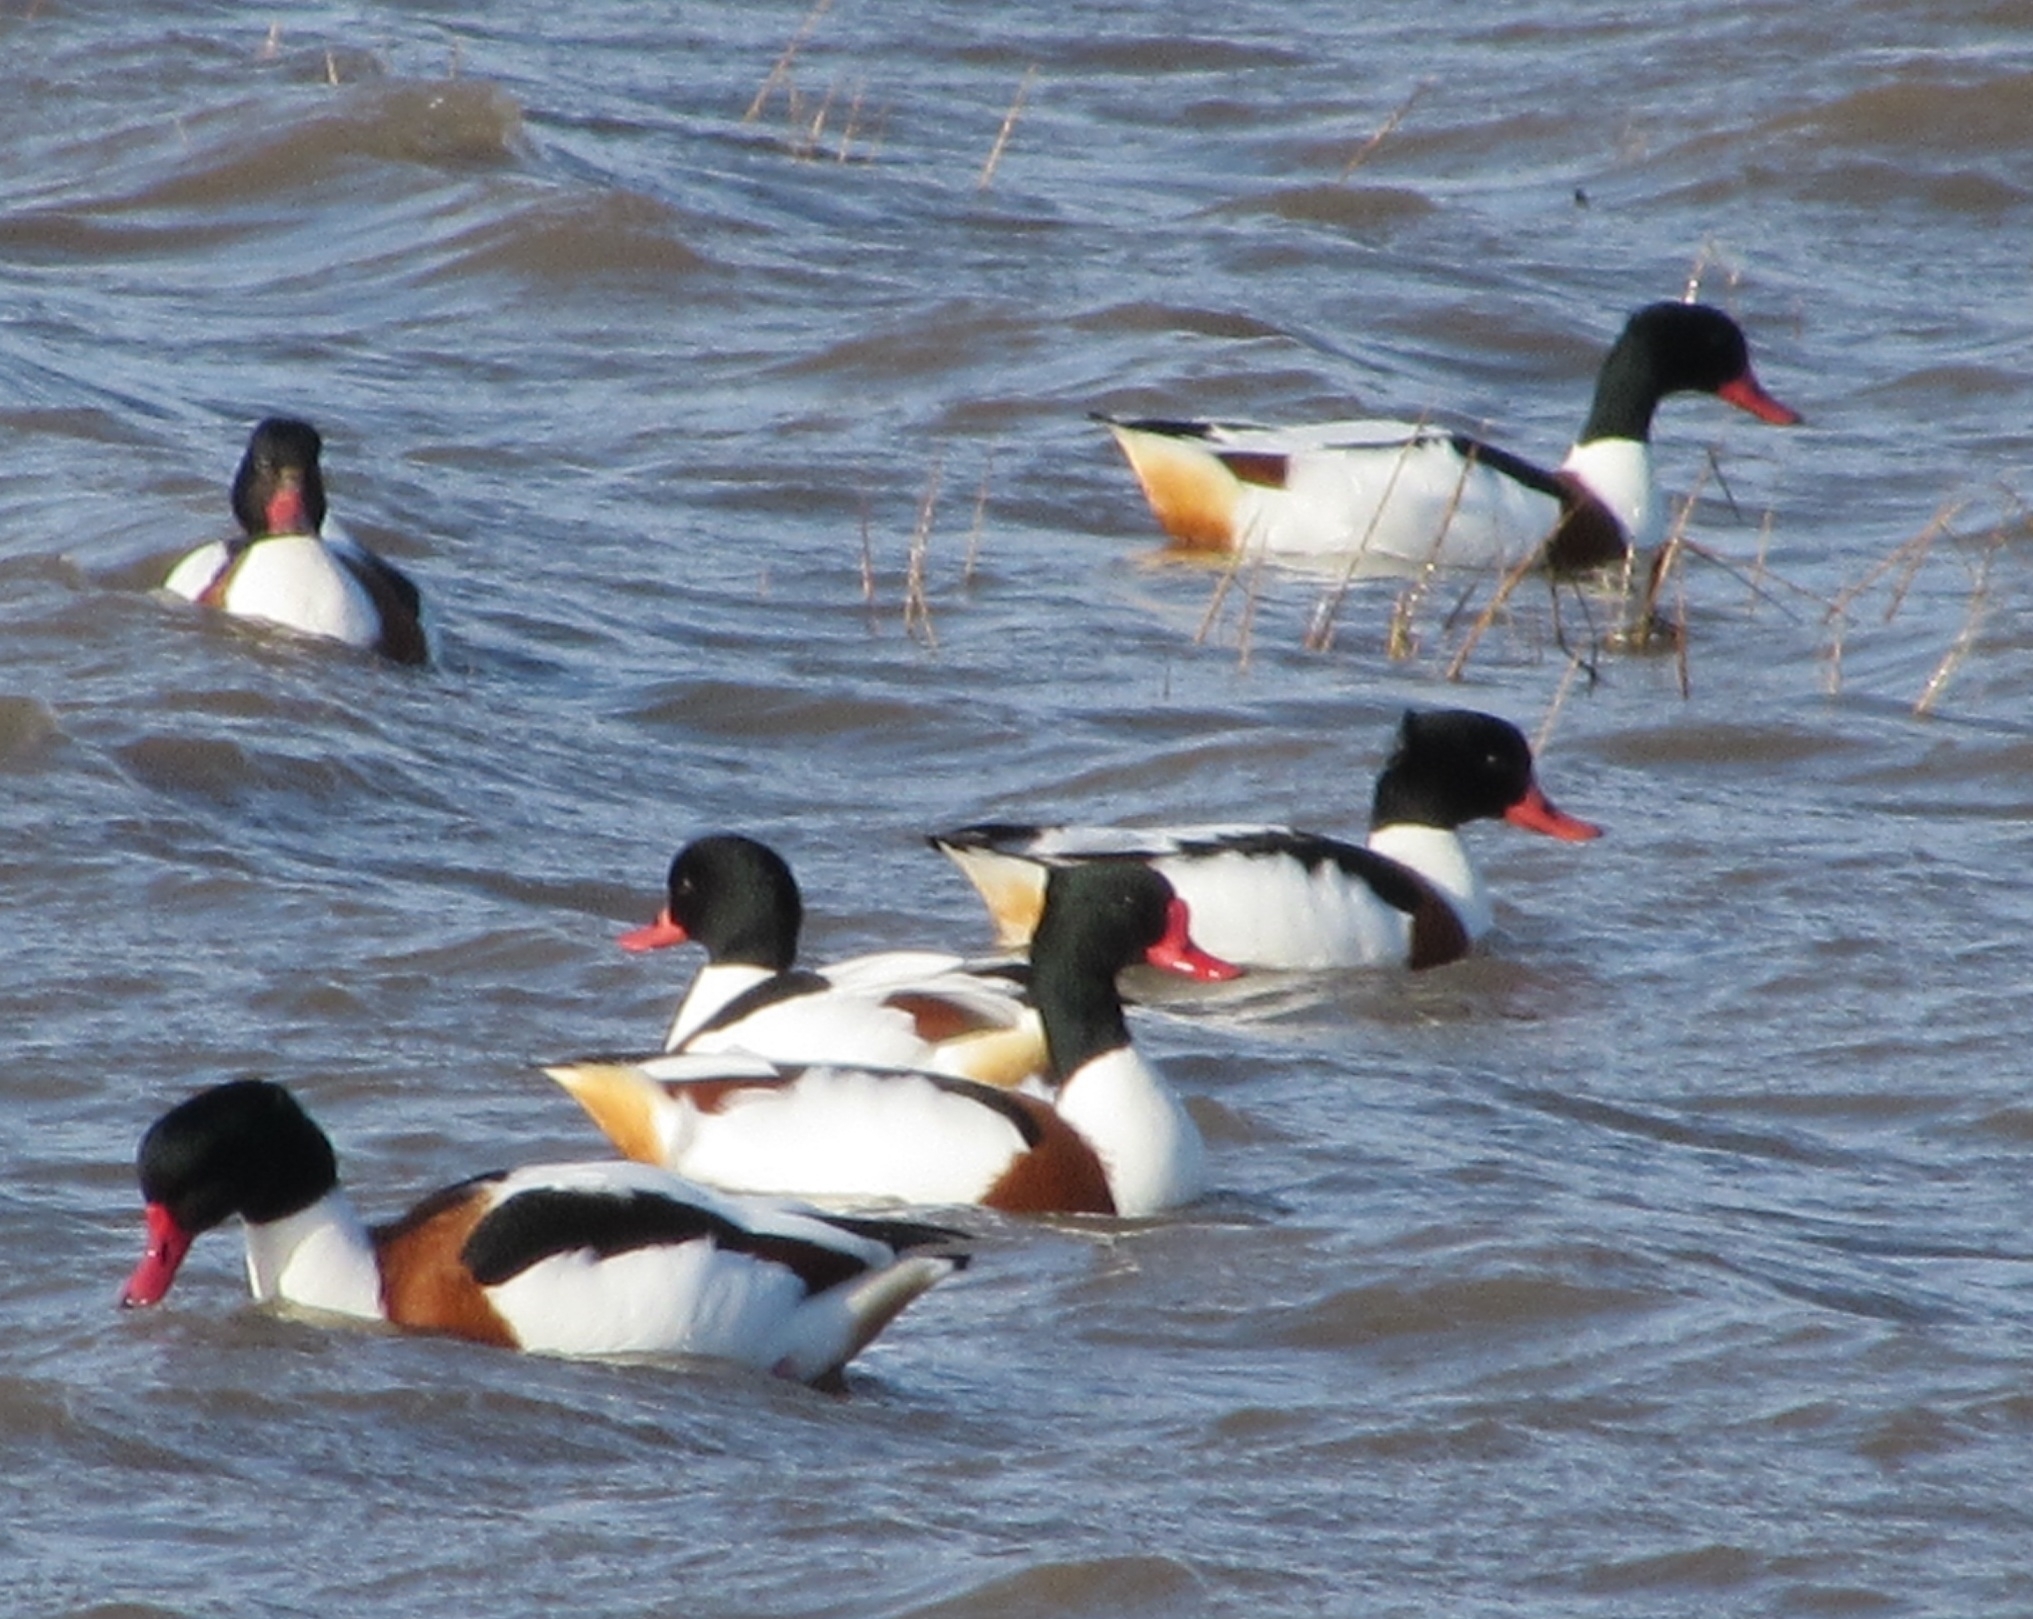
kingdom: Animalia
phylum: Chordata
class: Aves
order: Anseriformes
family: Anatidae
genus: Tadorna
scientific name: Tadorna tadorna
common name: Common shelduck
